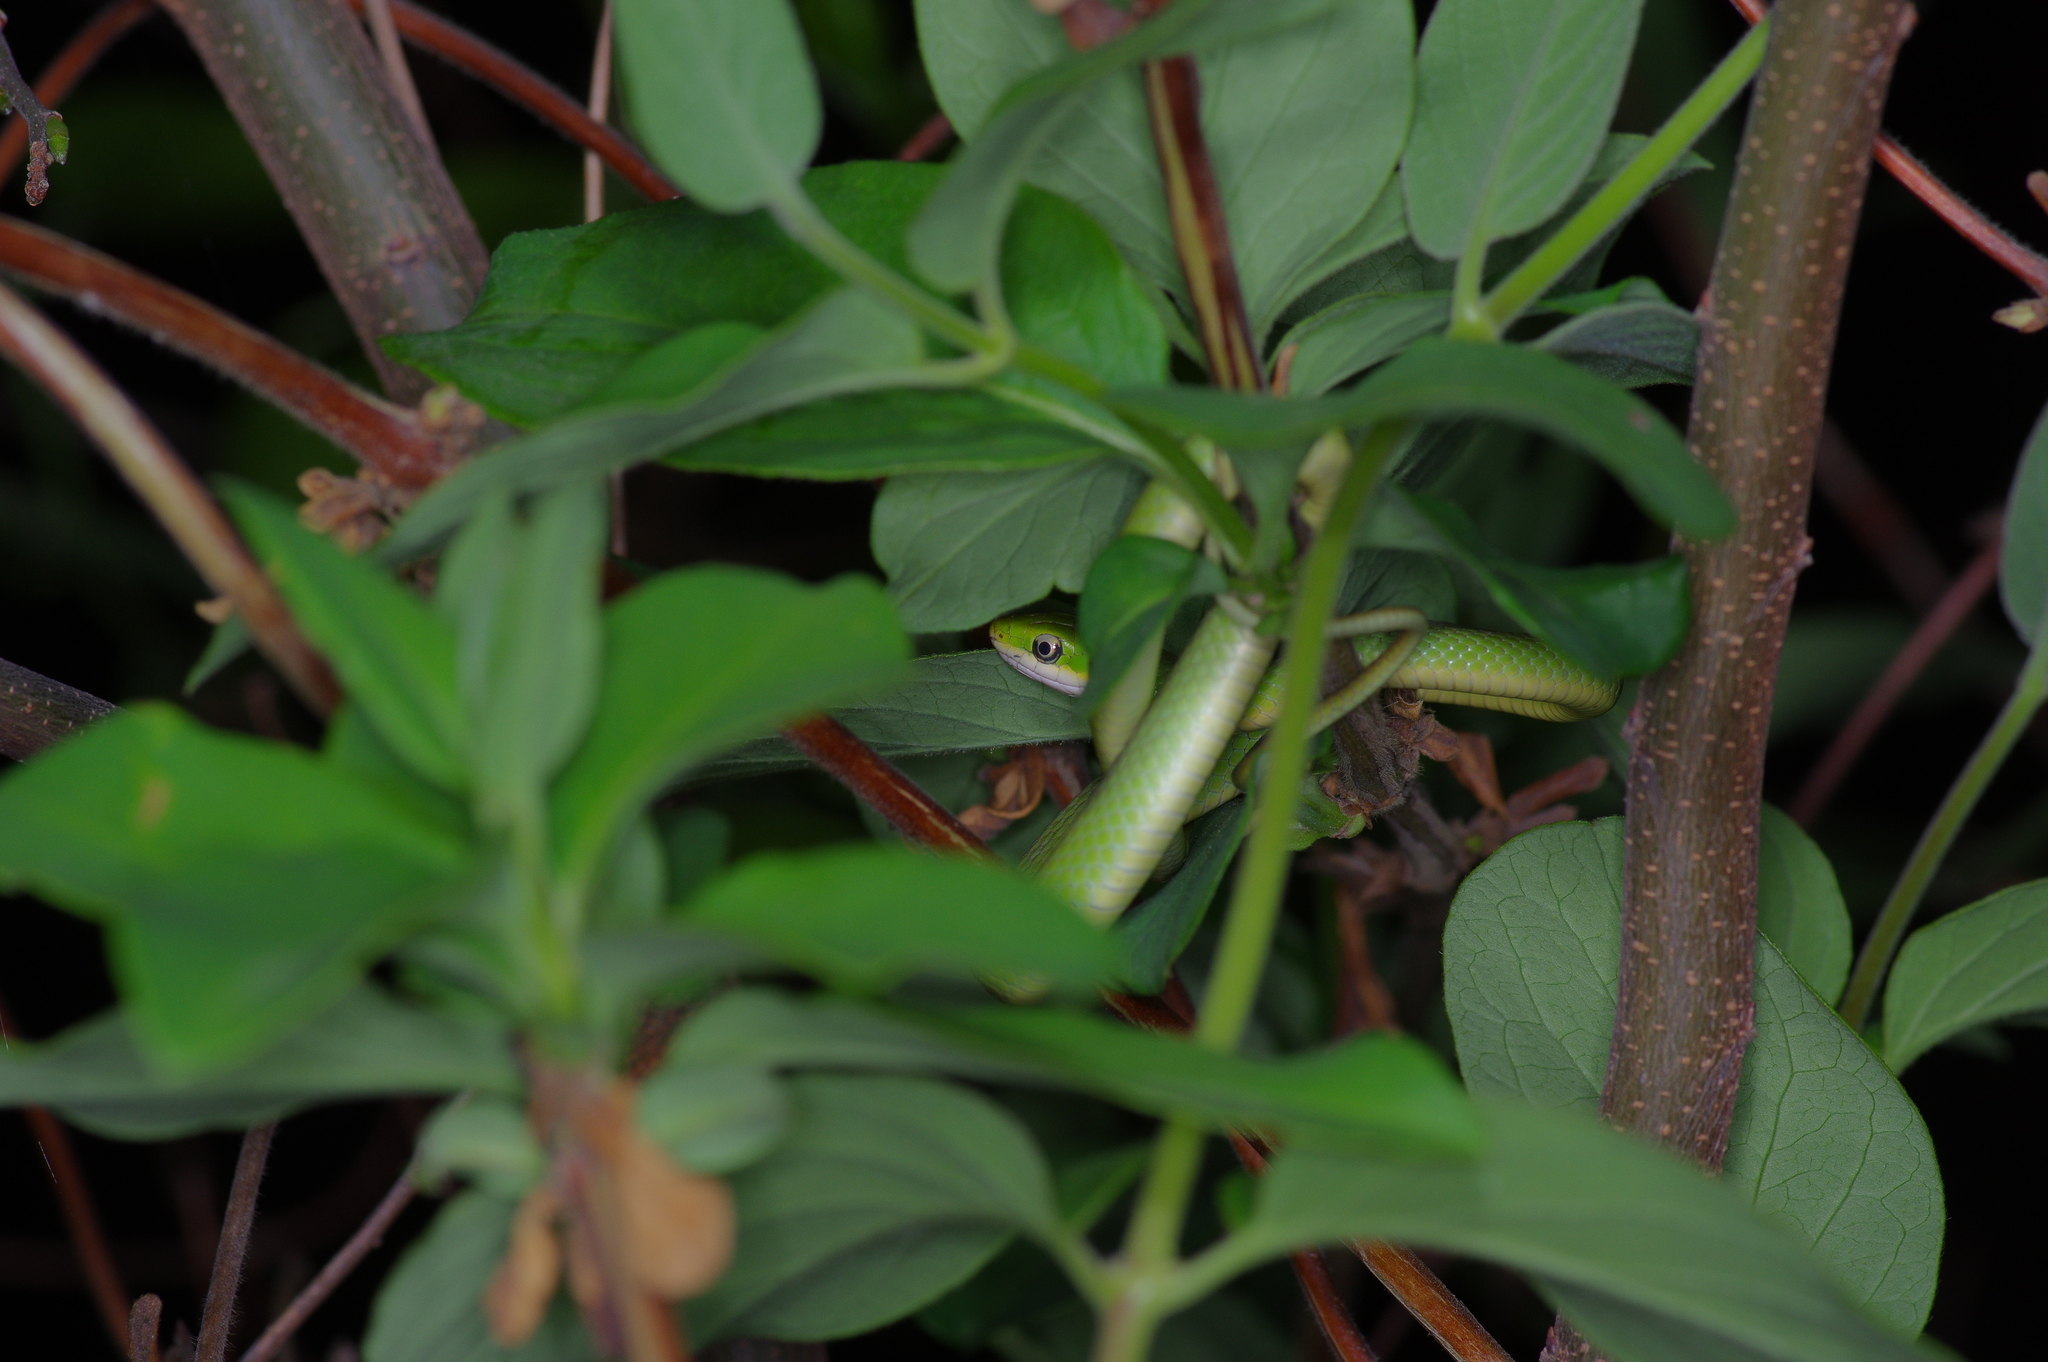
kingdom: Animalia
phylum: Chordata
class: Squamata
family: Colubridae
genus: Opheodrys
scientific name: Opheodrys aestivus
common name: Rough greensnake
